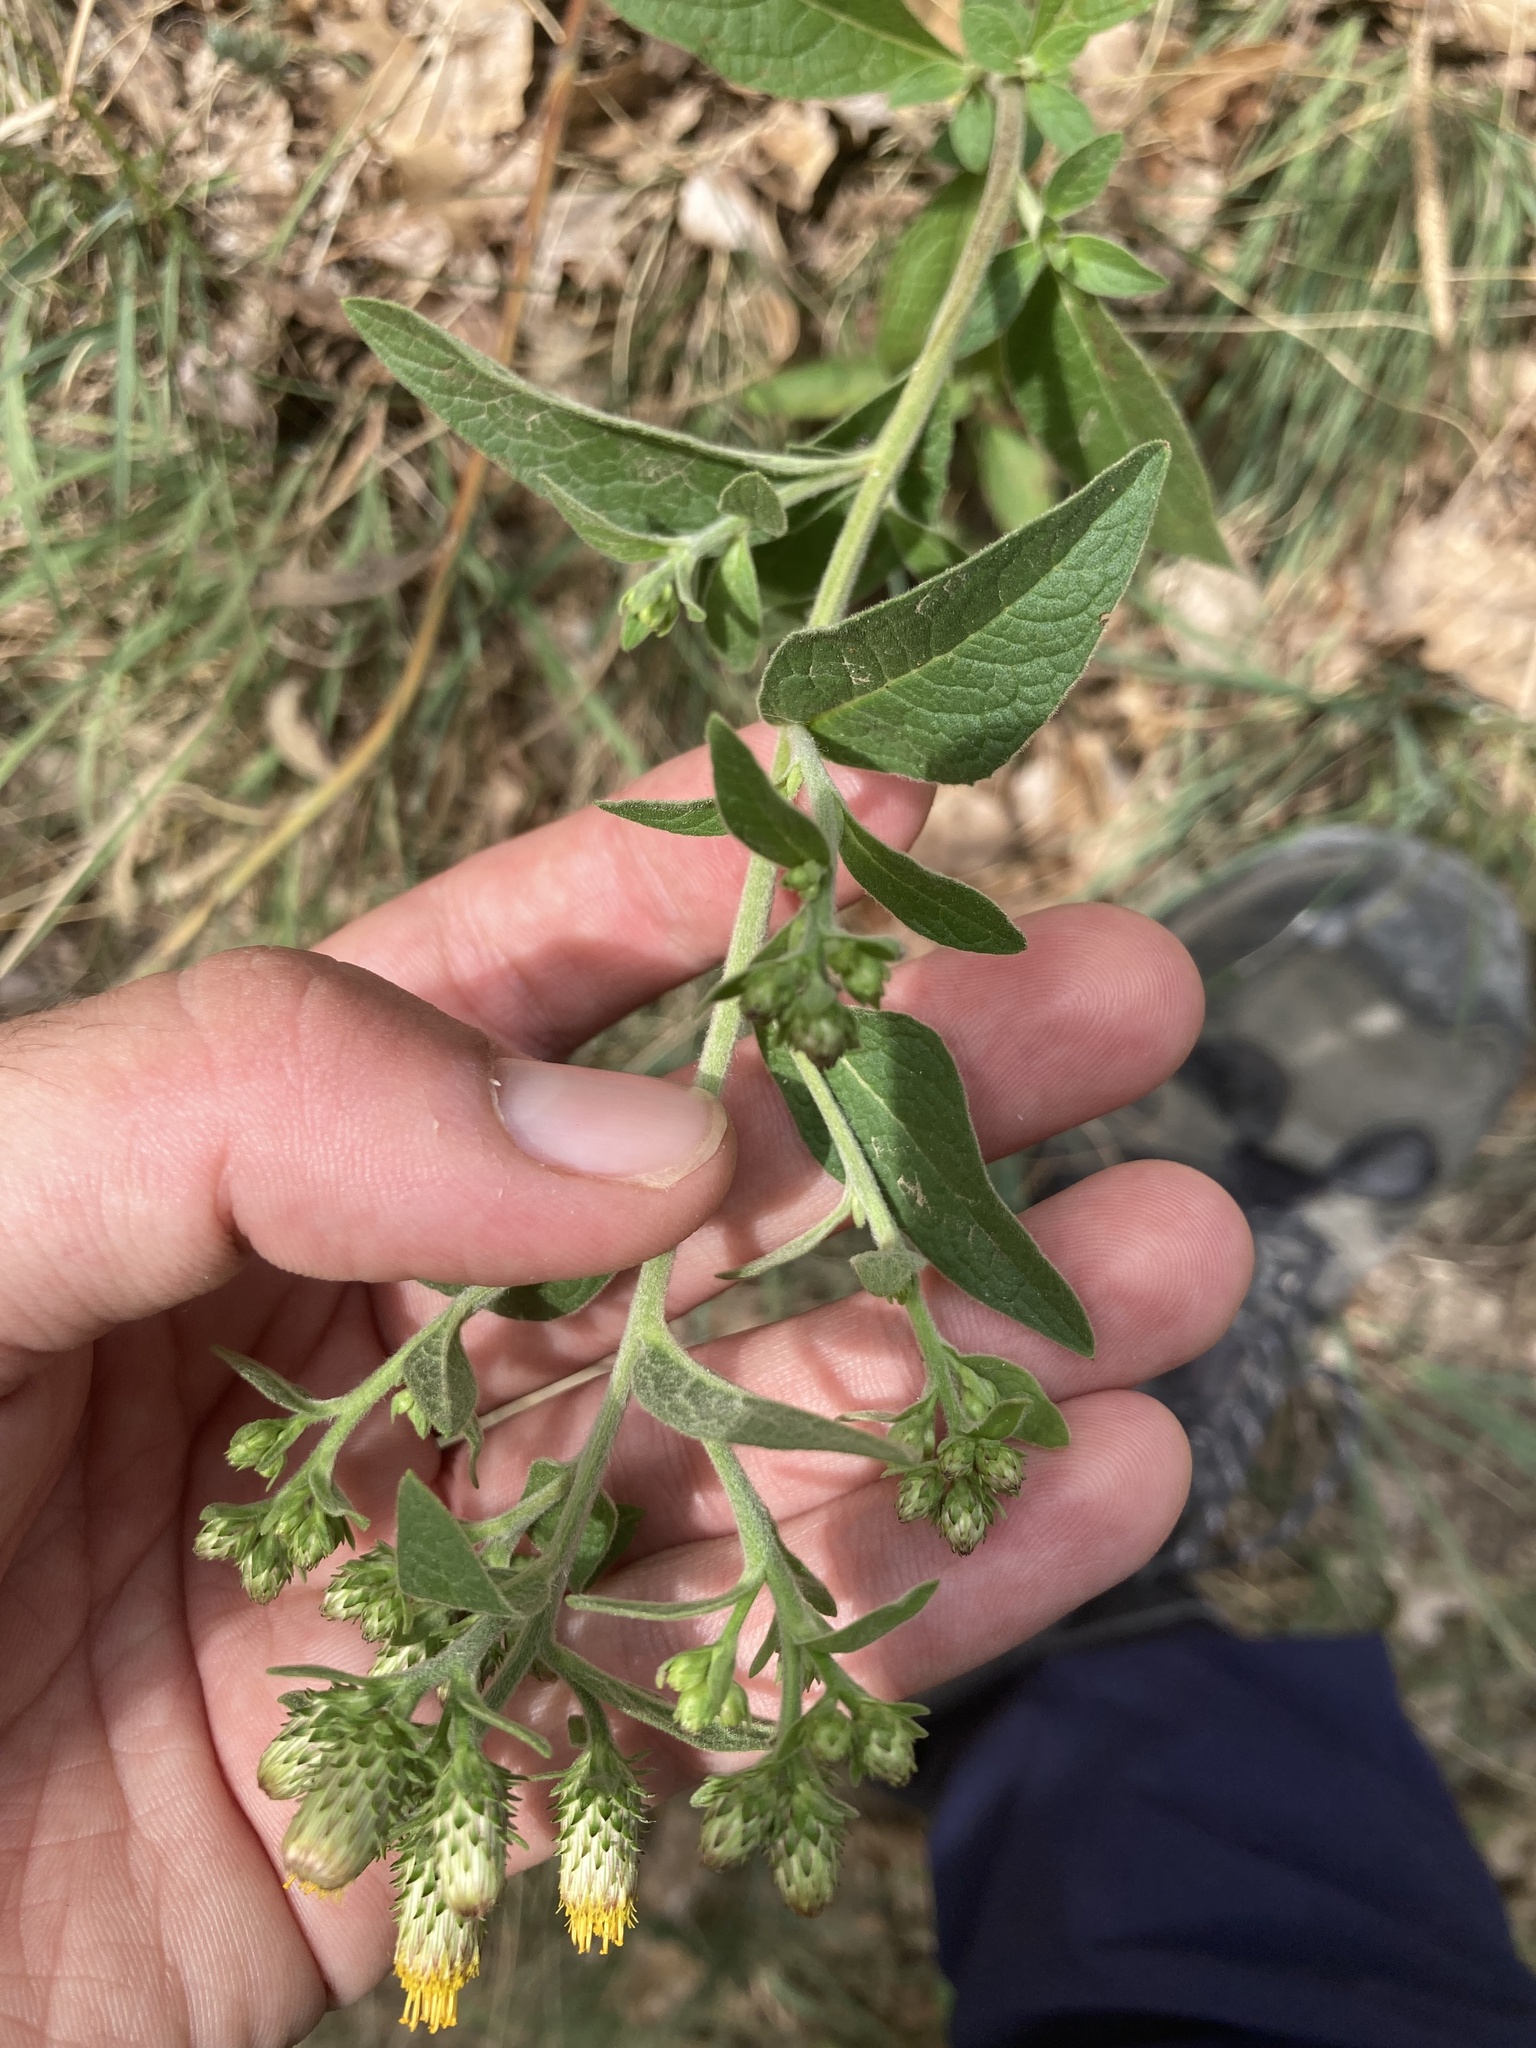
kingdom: Plantae
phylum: Tracheophyta
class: Magnoliopsida
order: Asterales
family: Asteraceae
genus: Pentanema
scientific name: Pentanema squarrosum
